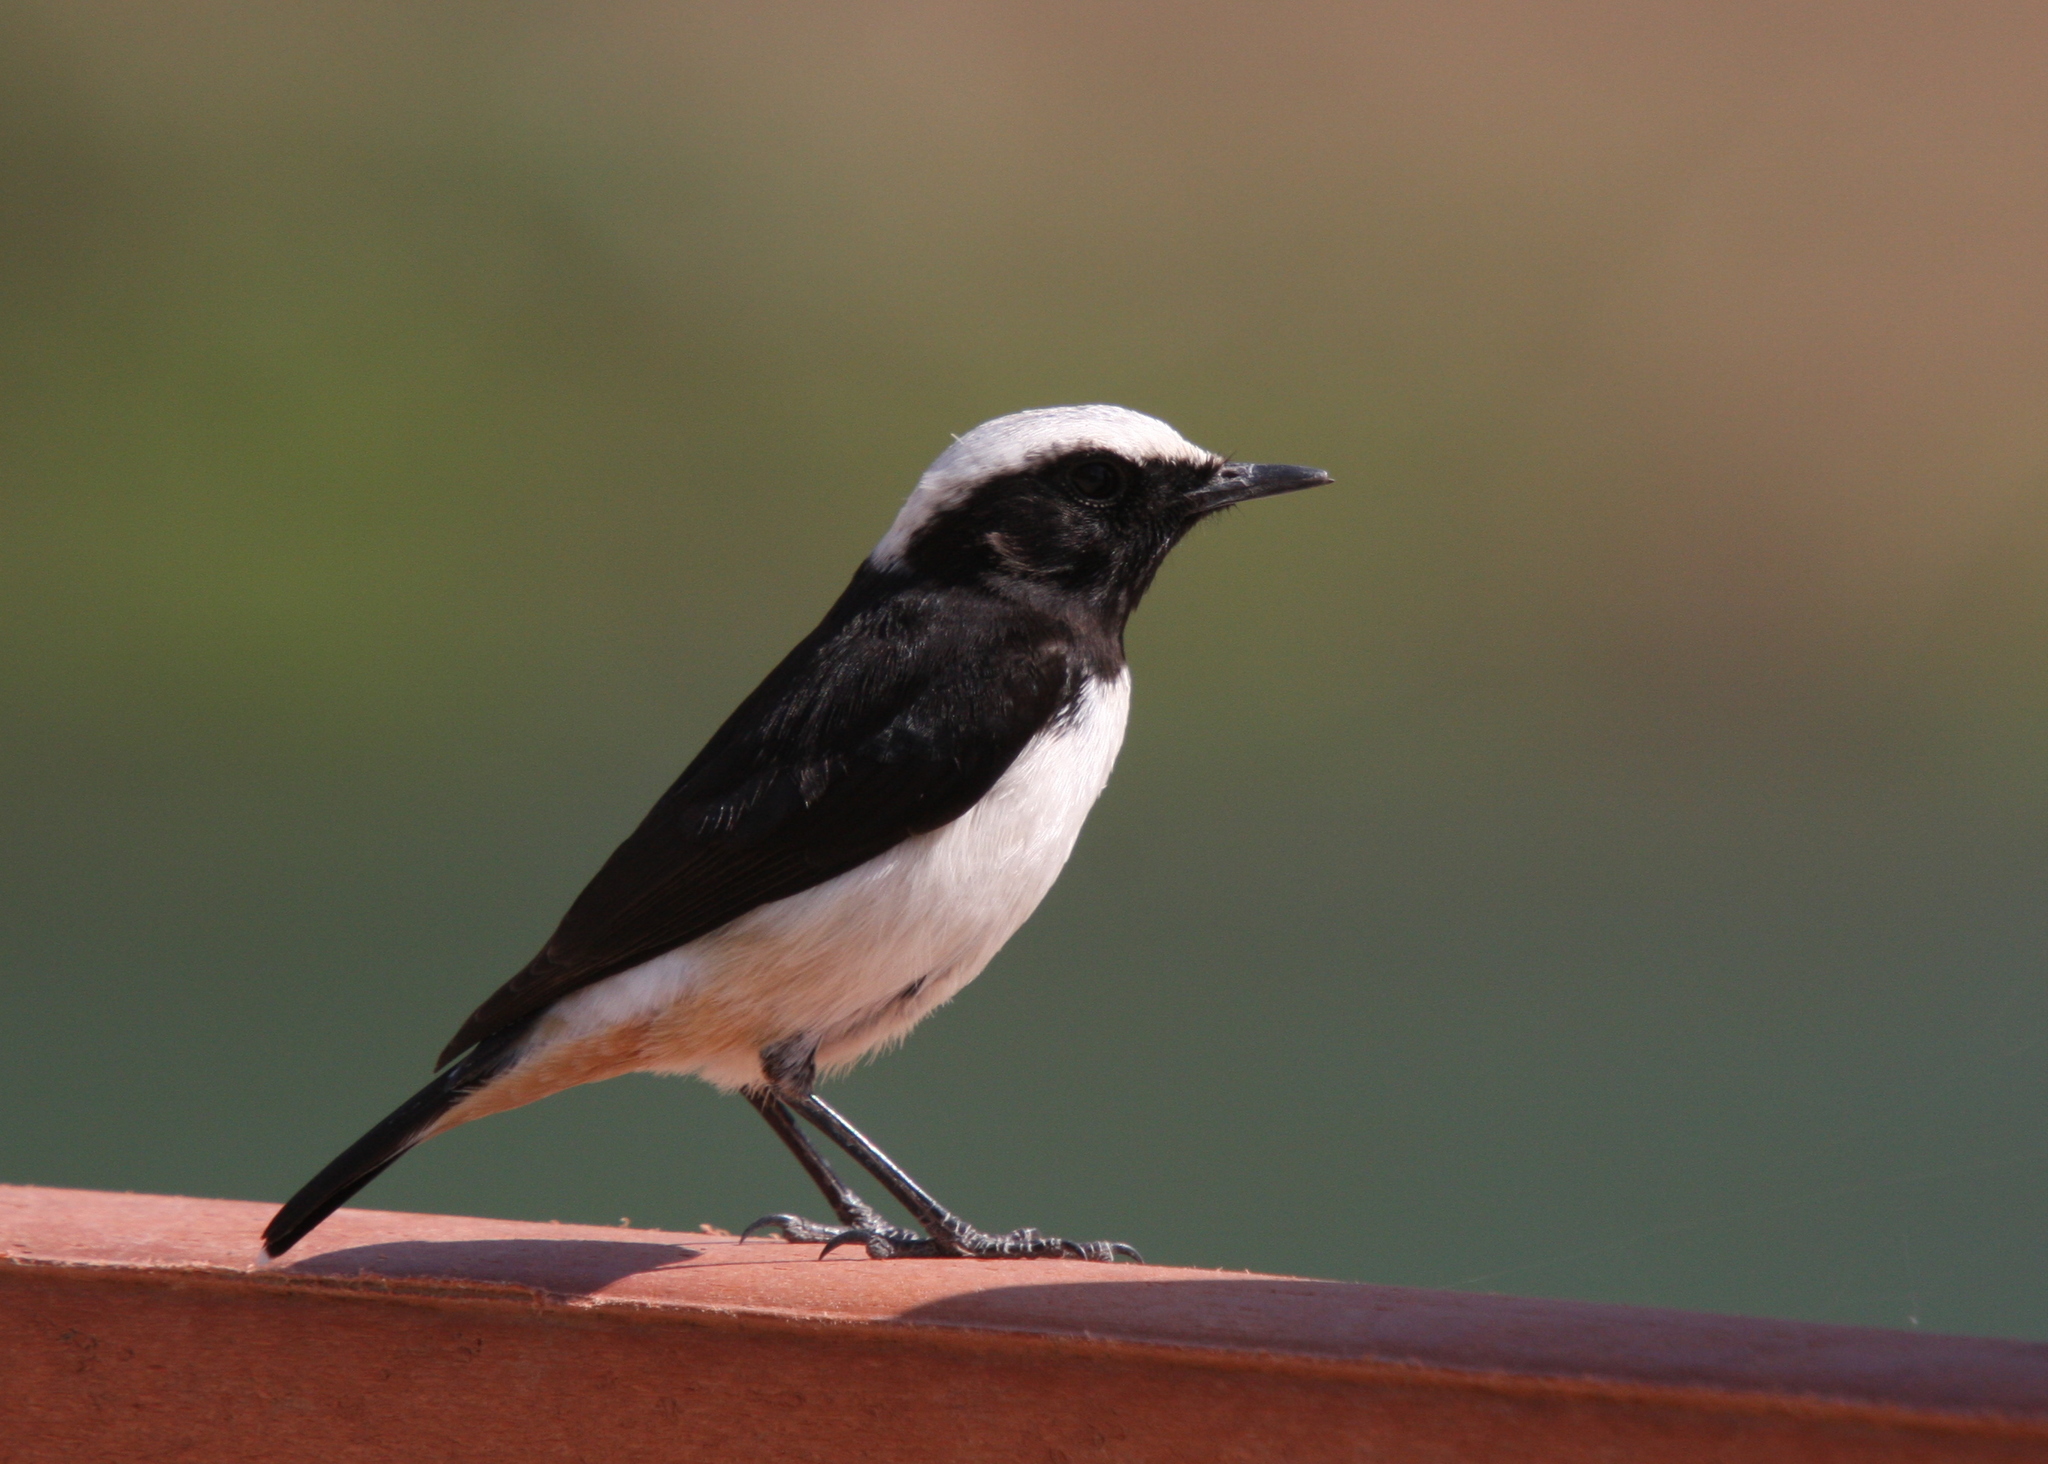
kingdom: Animalia
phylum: Chordata
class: Aves
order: Passeriformes
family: Muscicapidae
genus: Oenanthe
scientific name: Oenanthe lugentoides
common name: Arabian wheatear
